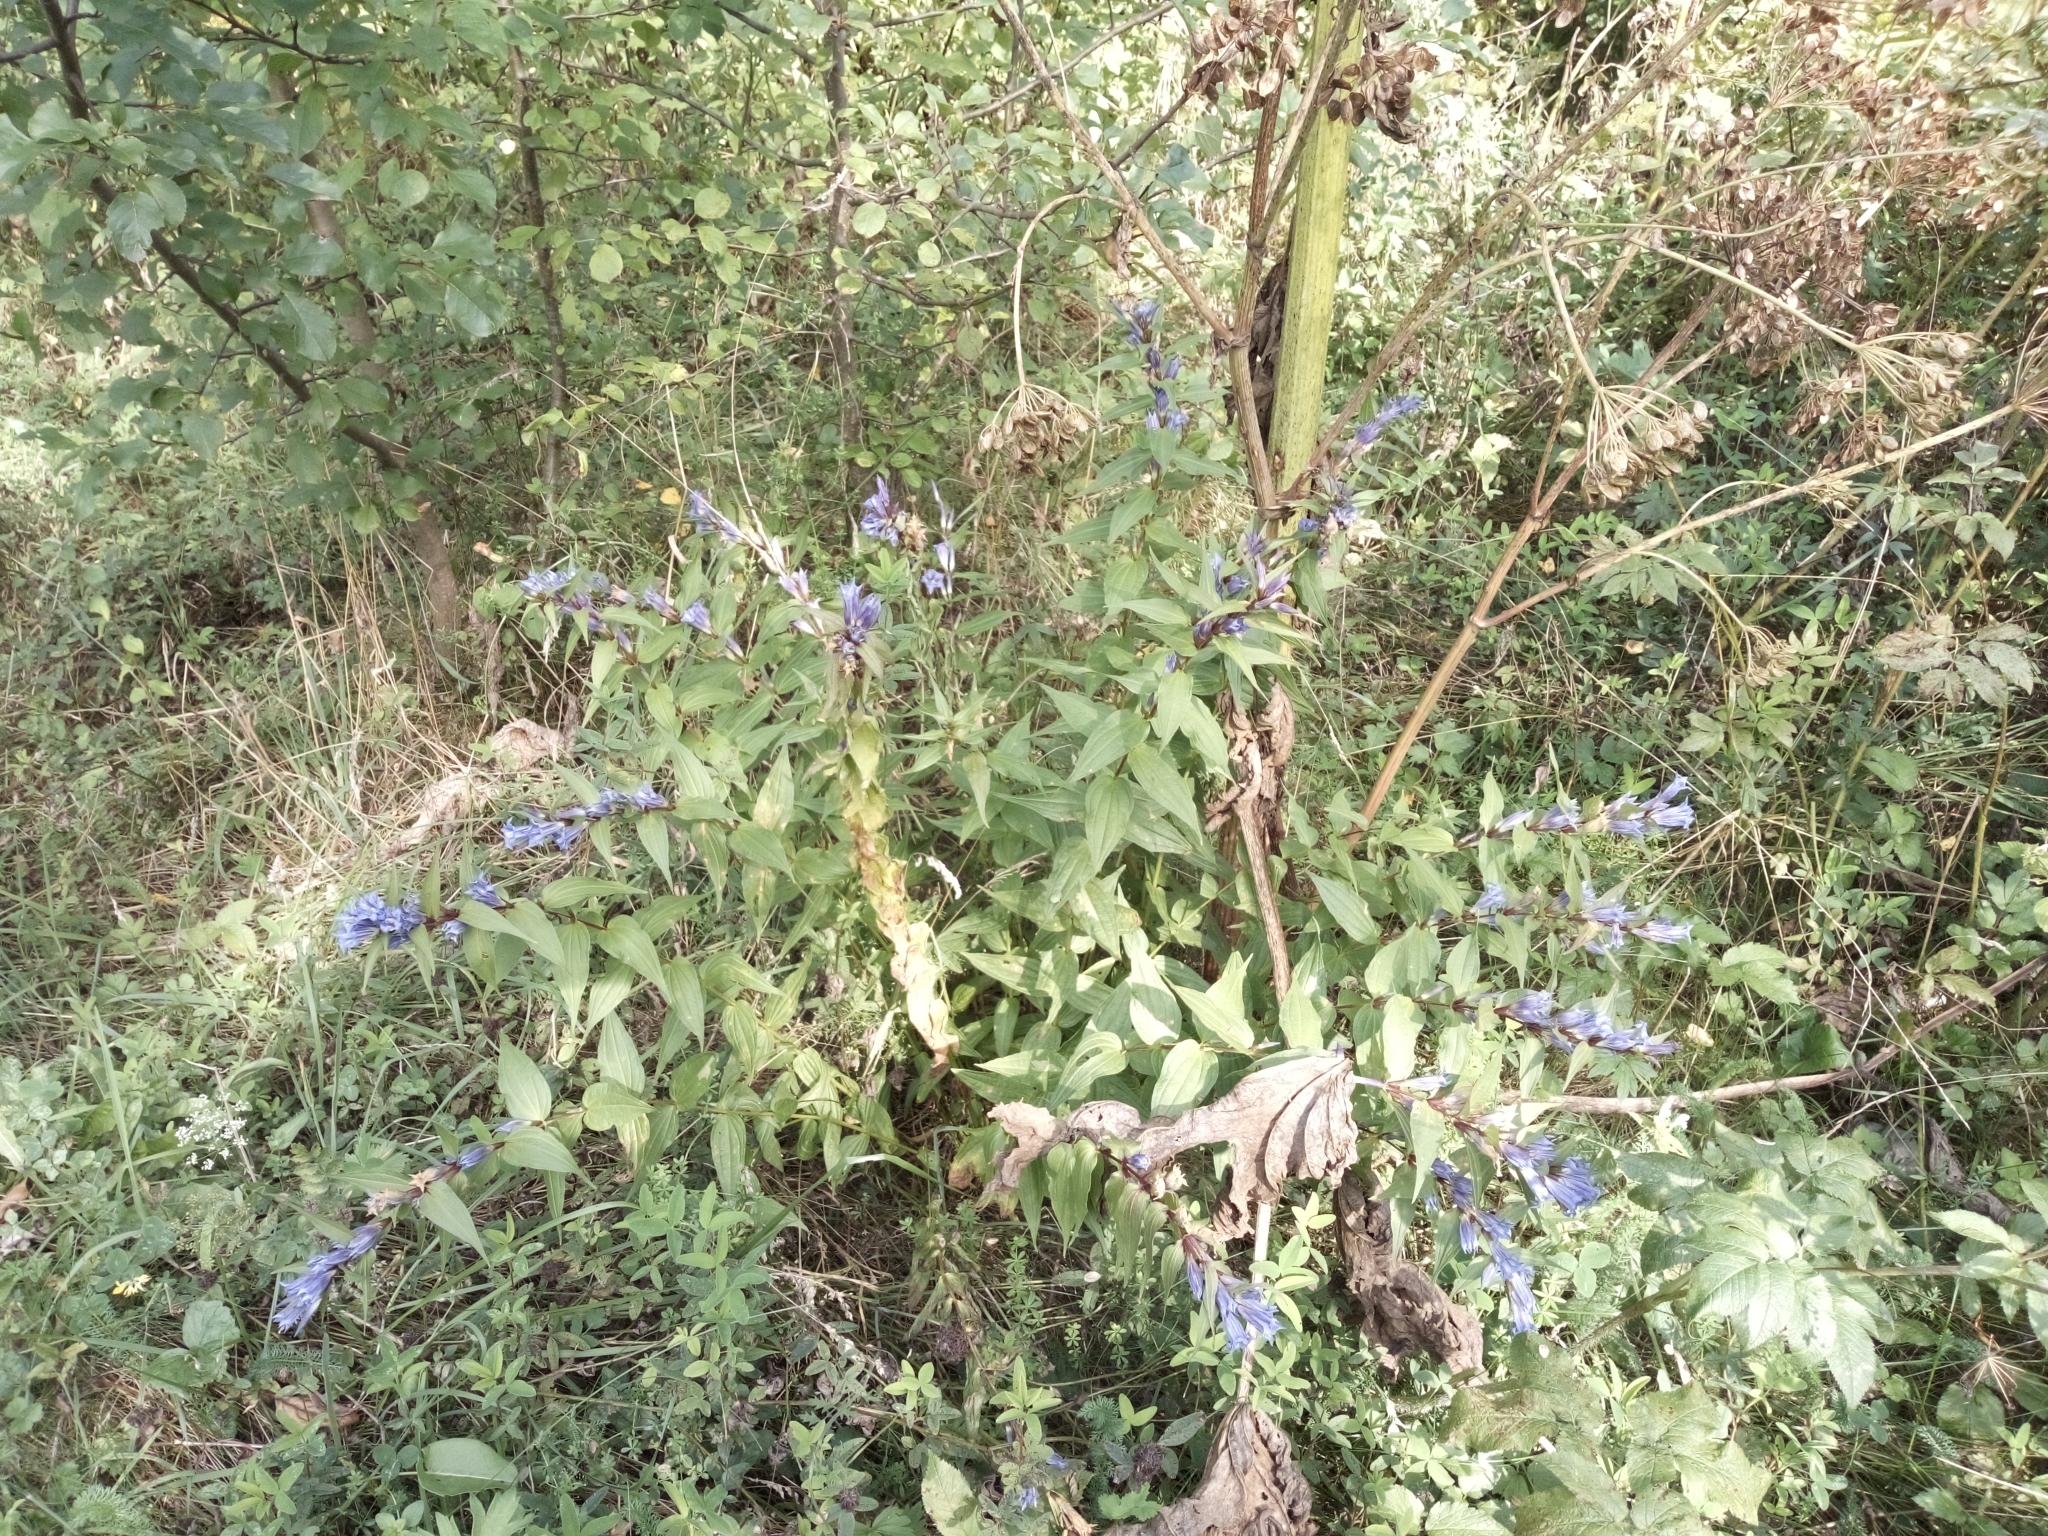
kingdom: Plantae
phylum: Tracheophyta
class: Magnoliopsida
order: Gentianales
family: Gentianaceae
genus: Gentiana
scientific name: Gentiana asclepiadea
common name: Willow gentian
